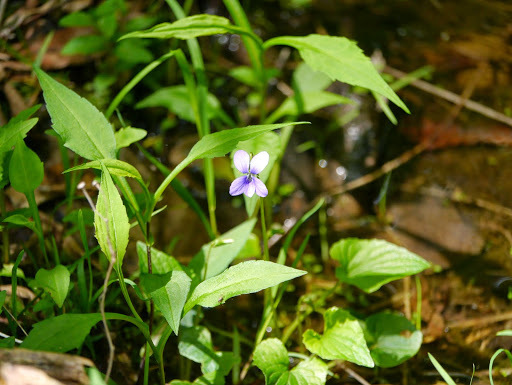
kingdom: Plantae
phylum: Tracheophyta
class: Magnoliopsida
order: Malpighiales
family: Violaceae
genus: Viola
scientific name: Viola cucullata
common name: Marsh blue violet
